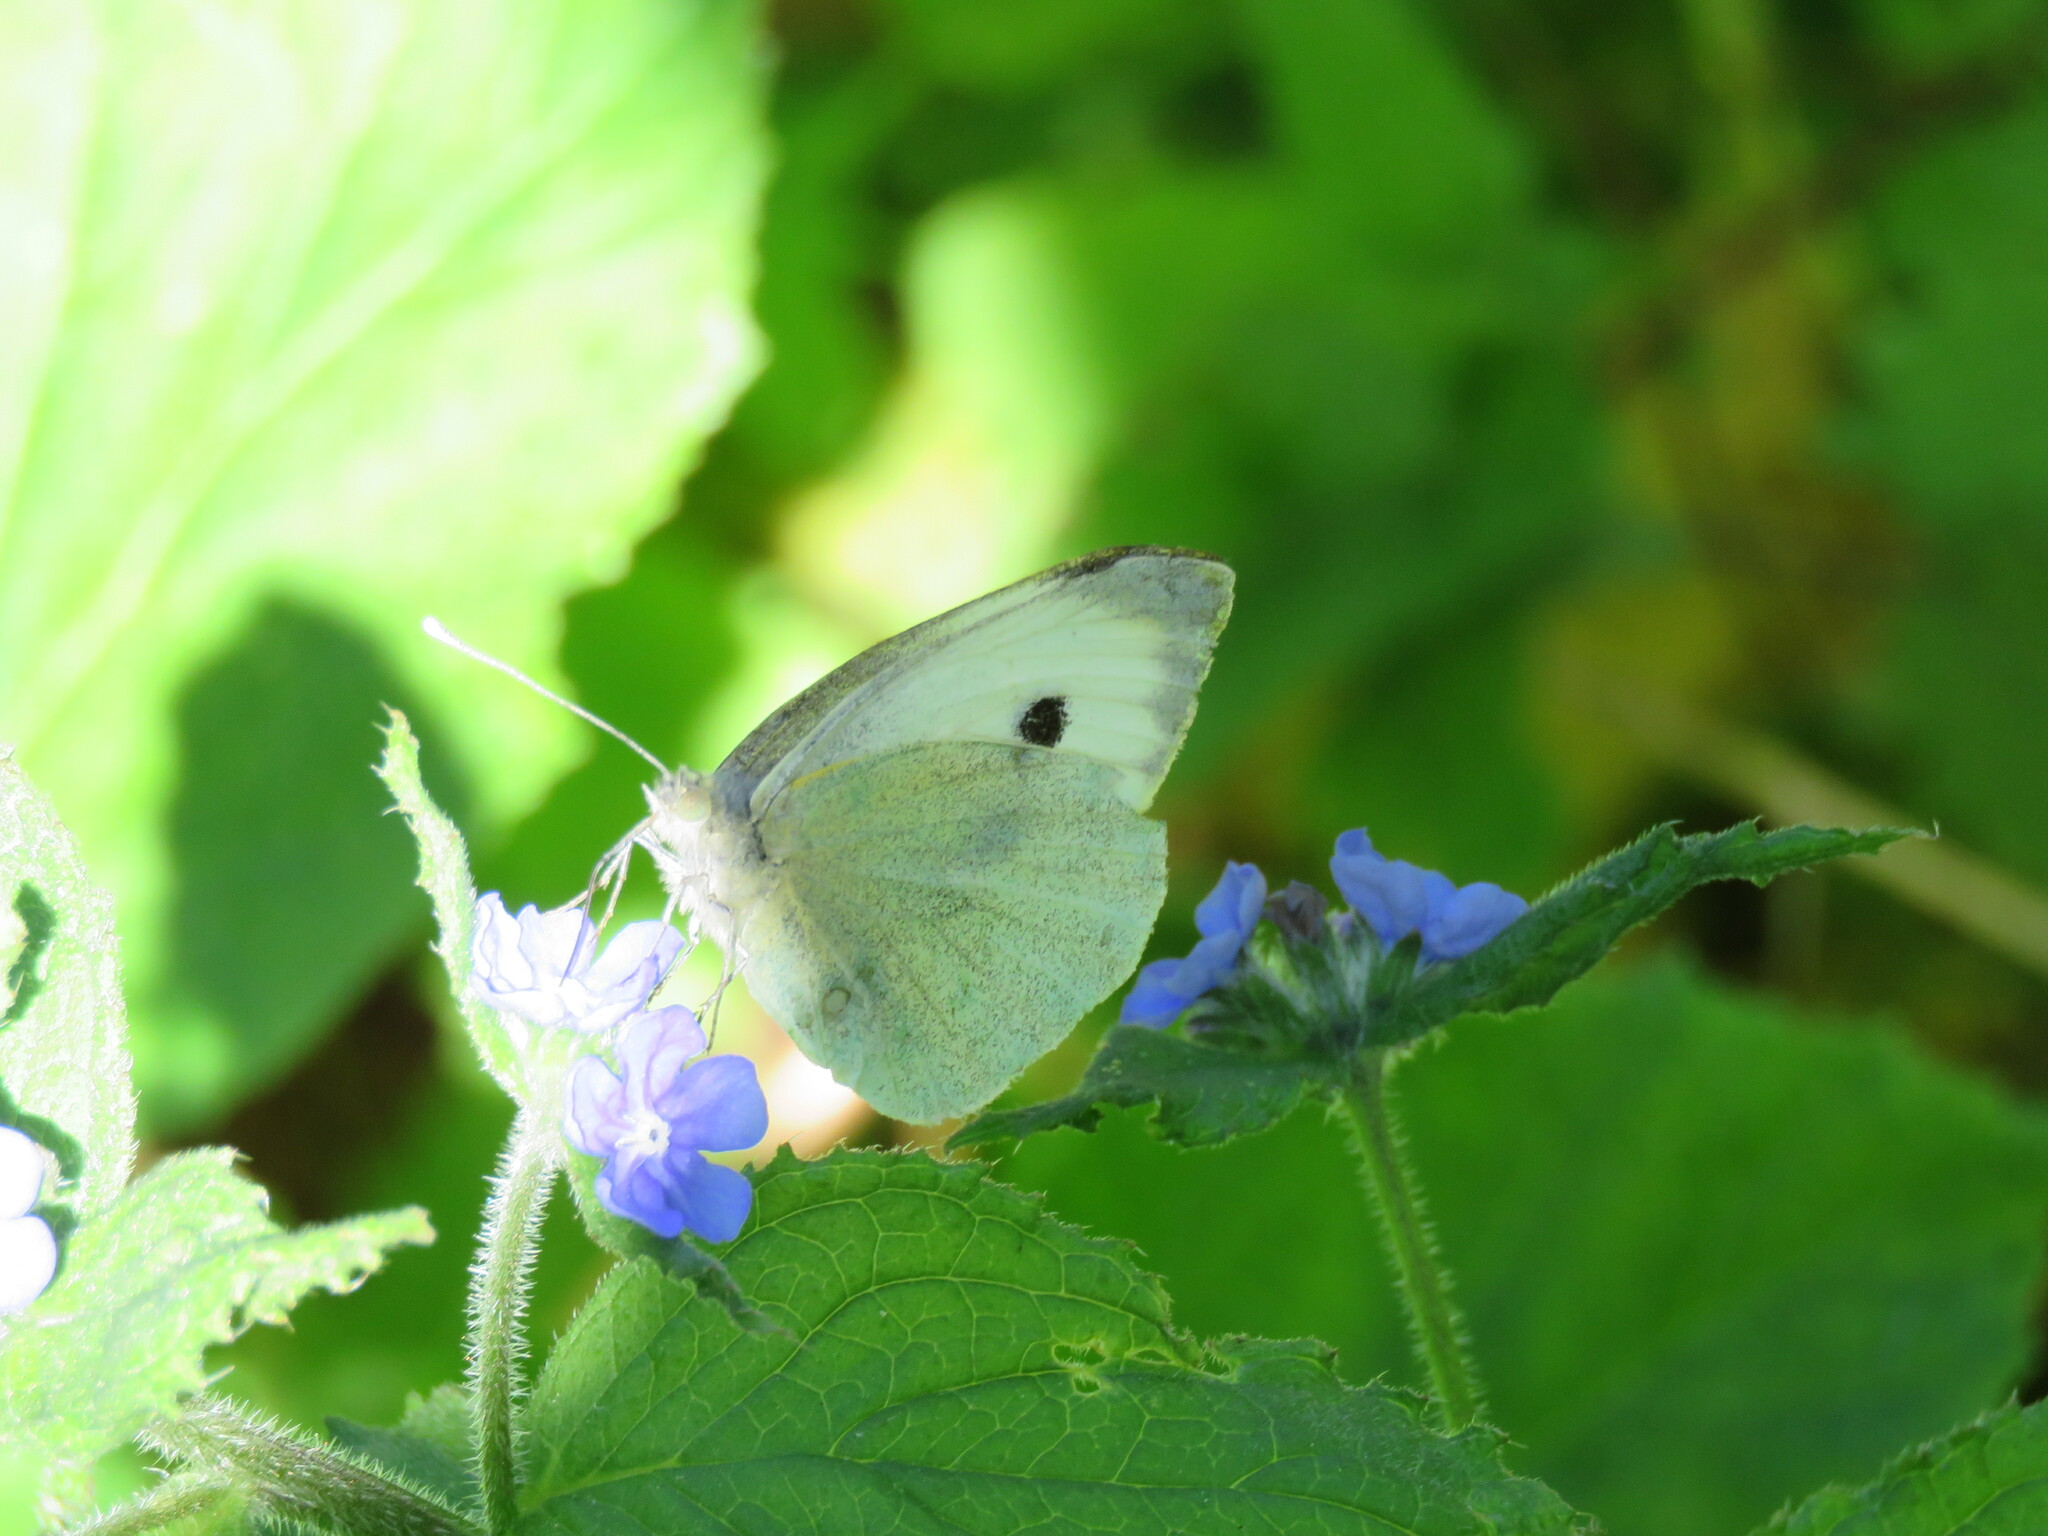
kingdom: Animalia
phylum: Arthropoda
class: Insecta
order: Lepidoptera
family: Pieridae
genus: Pieris
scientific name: Pieris brassicae
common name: Large white
